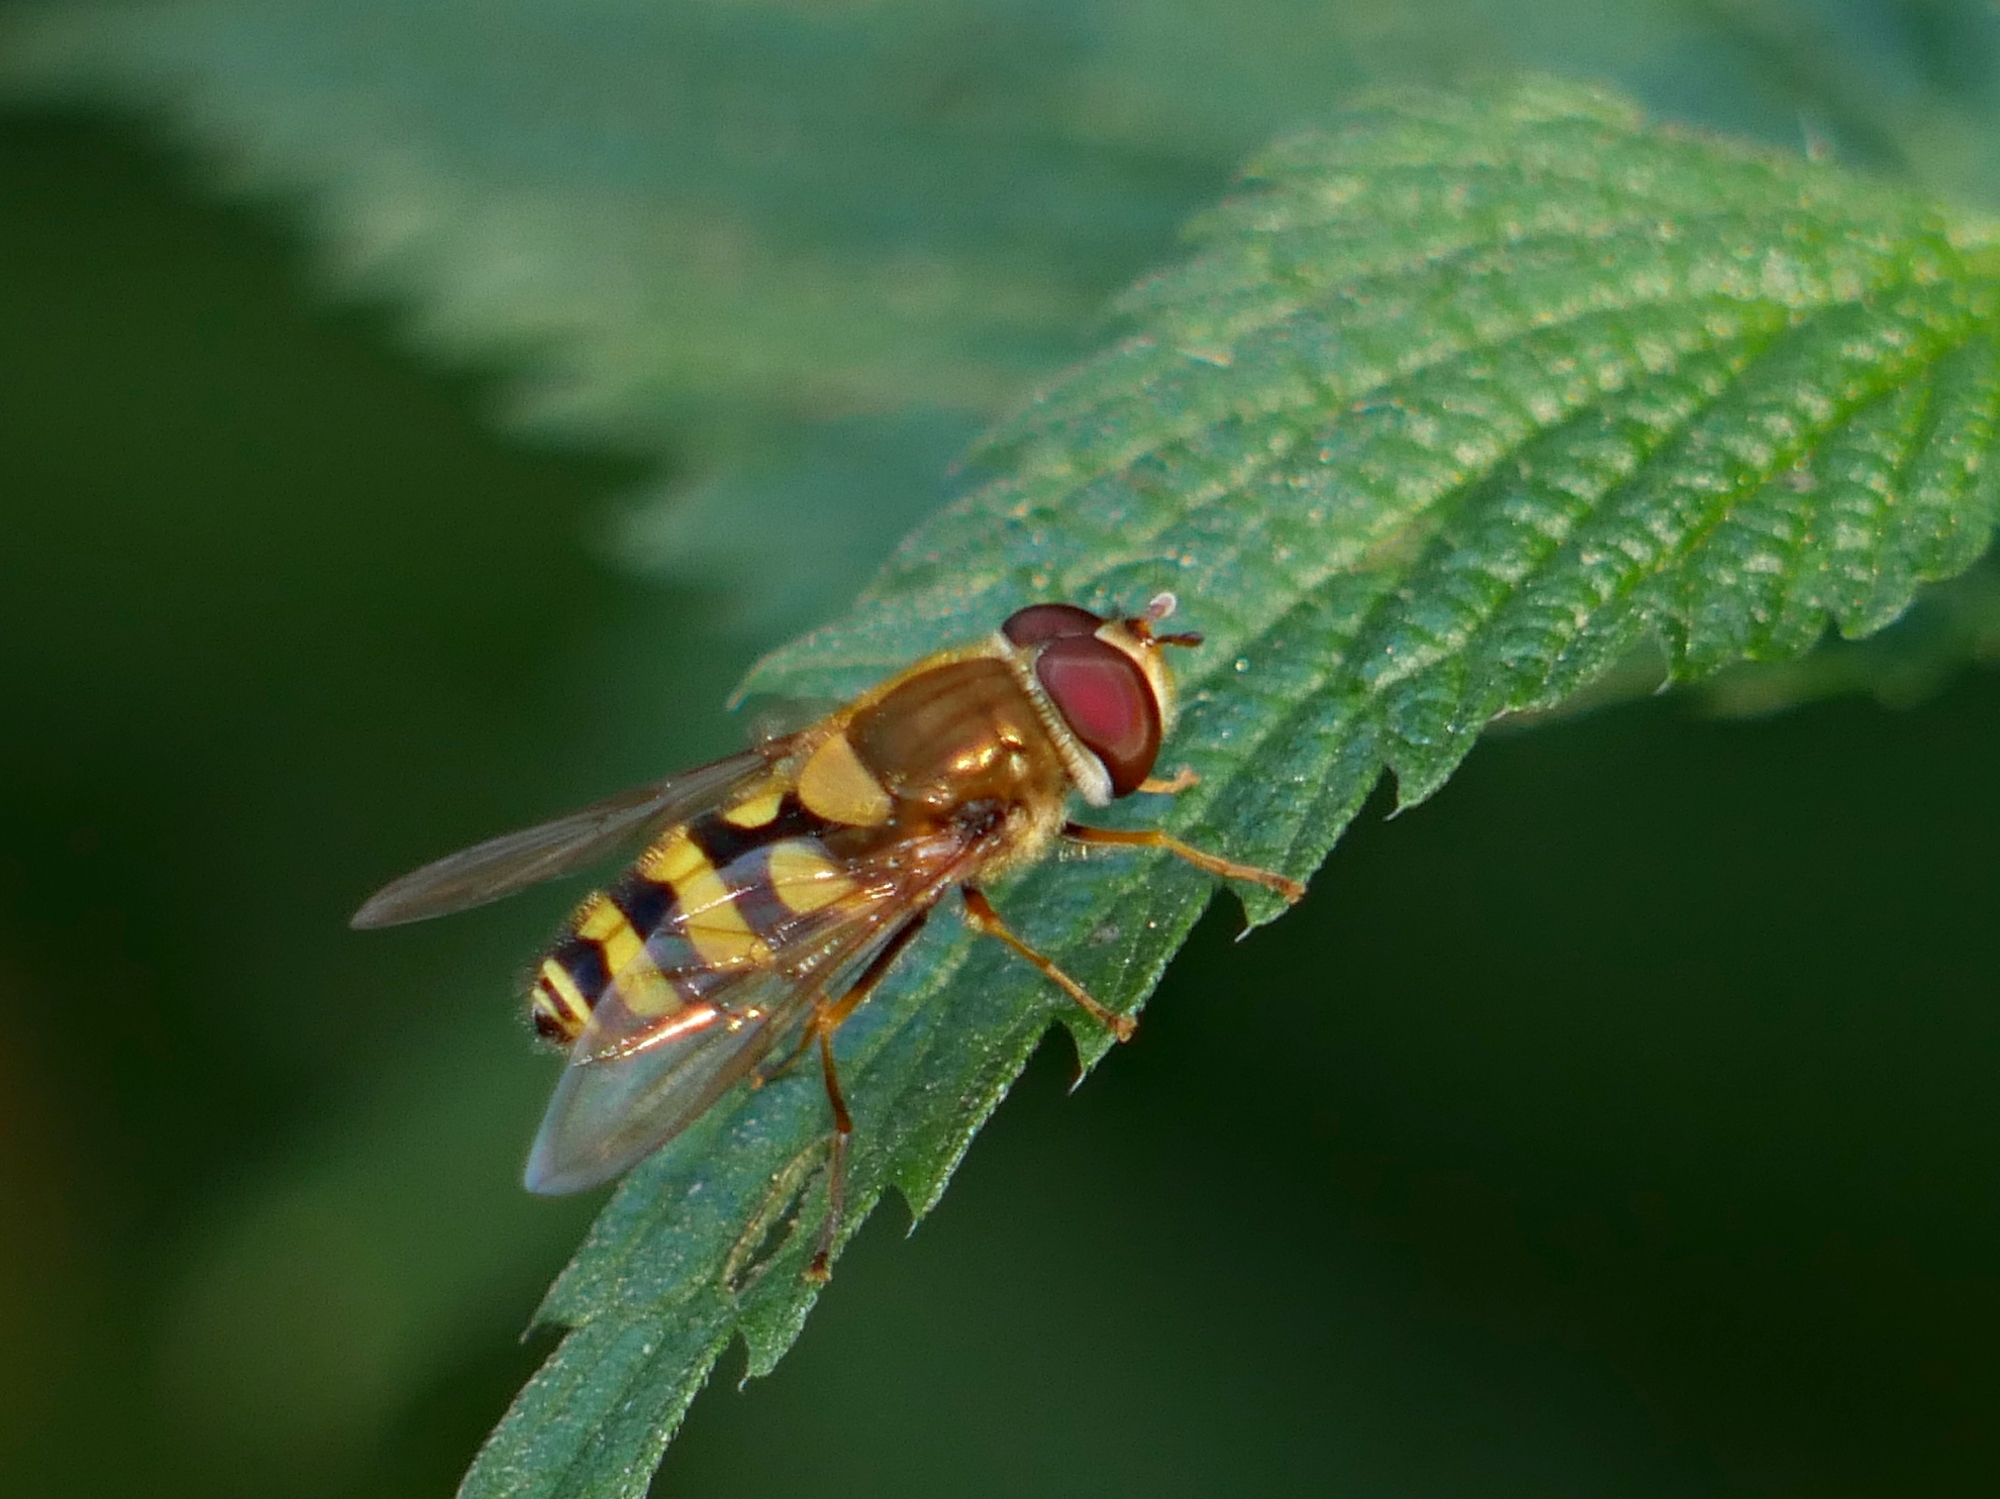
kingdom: Animalia
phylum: Arthropoda
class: Insecta
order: Diptera
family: Syrphidae
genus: Syrphus
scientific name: Syrphus
